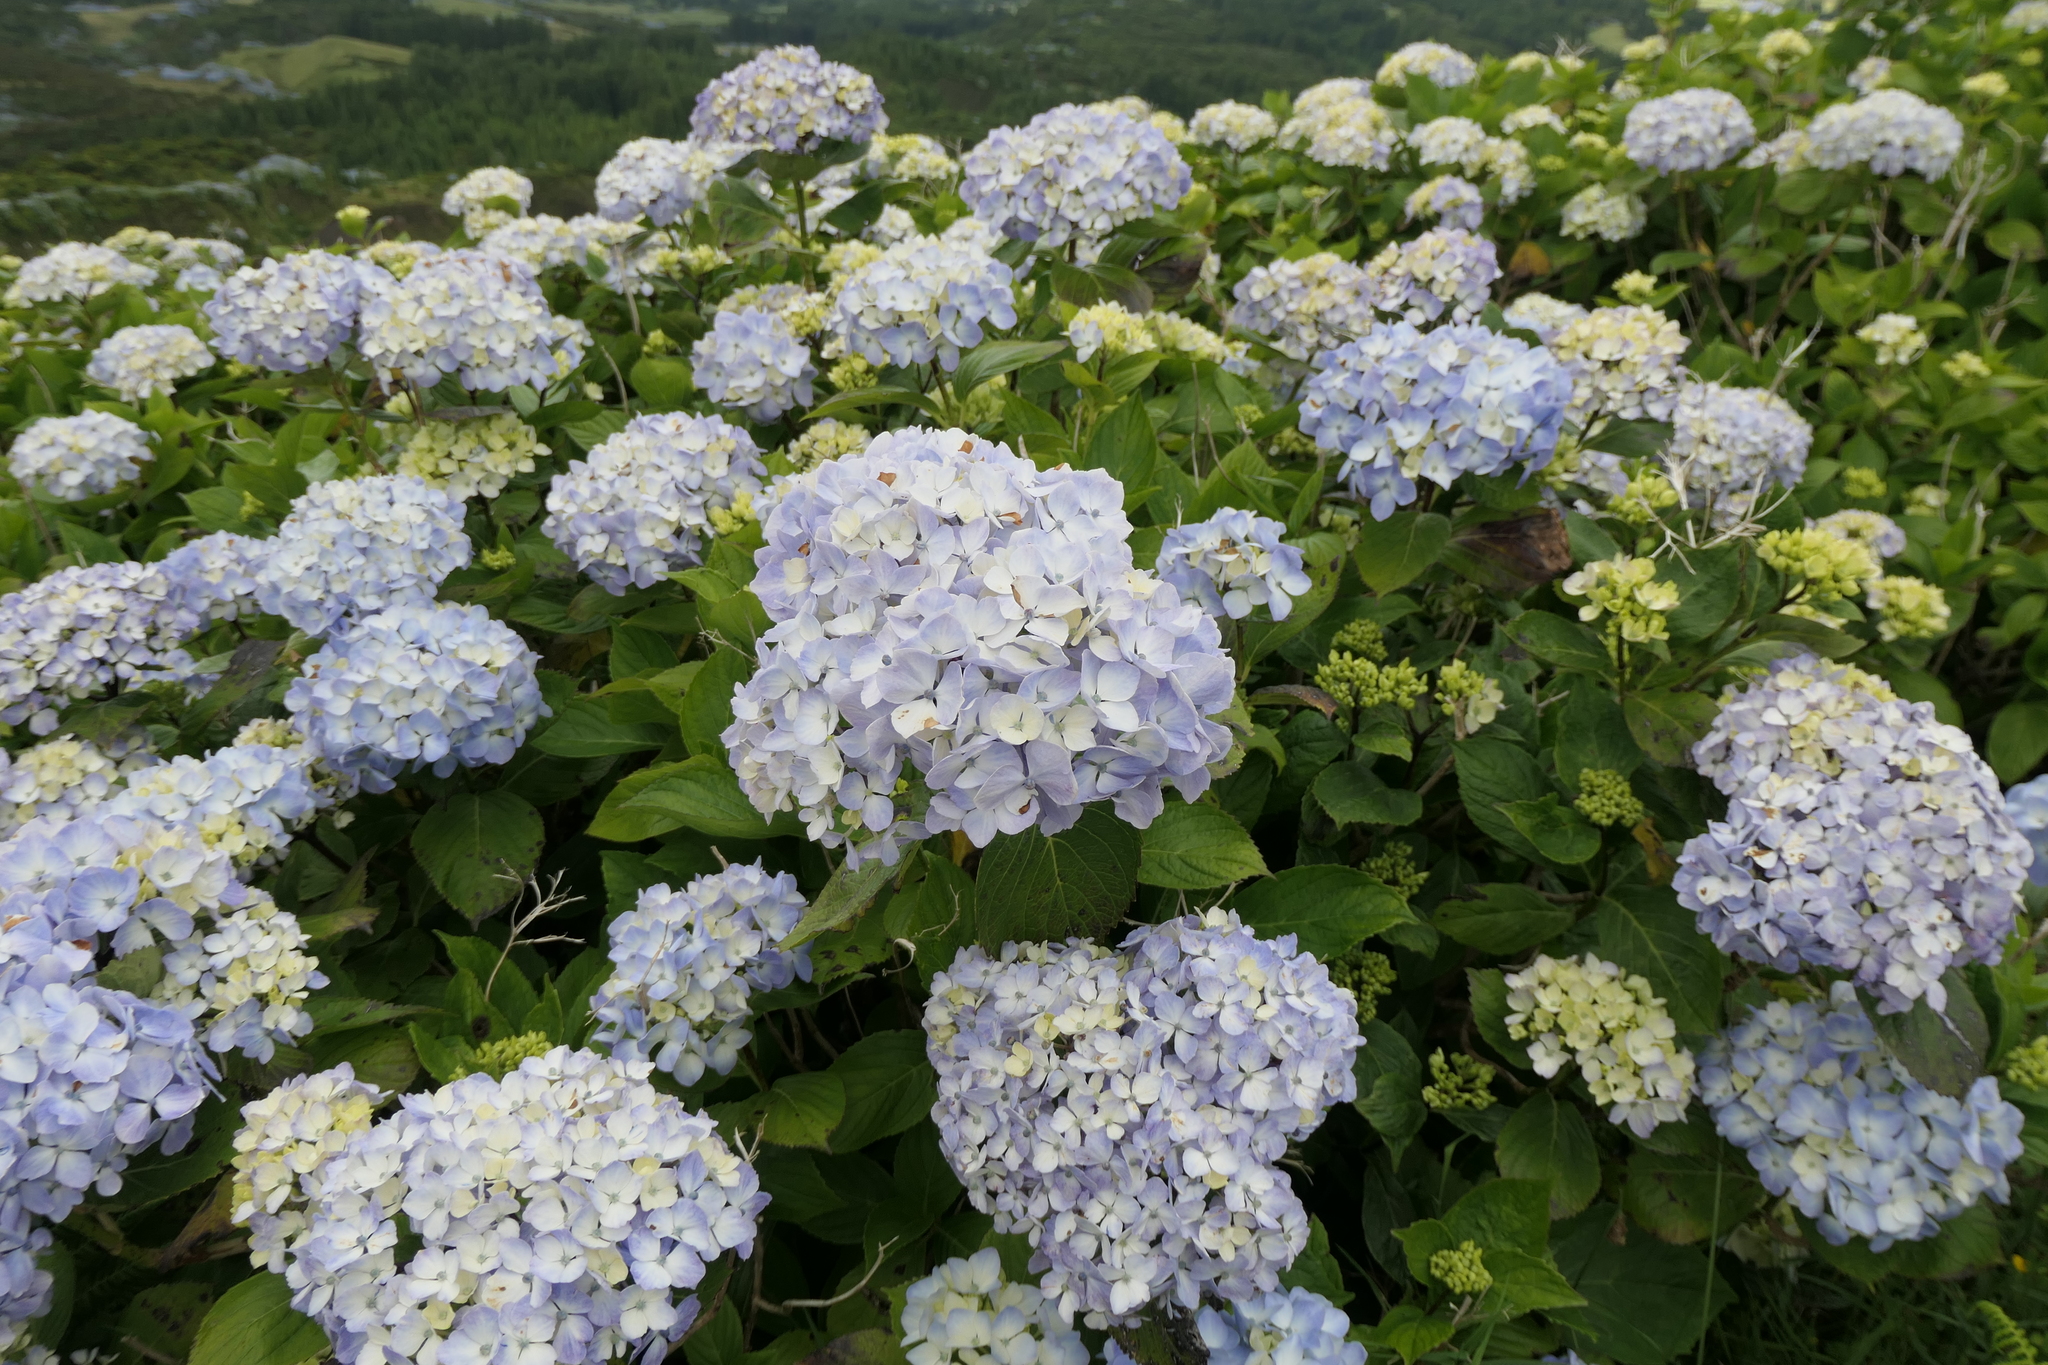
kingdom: Plantae
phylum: Tracheophyta
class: Magnoliopsida
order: Cornales
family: Hydrangeaceae
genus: Hydrangea
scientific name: Hydrangea macrophylla
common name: Hydrangea
